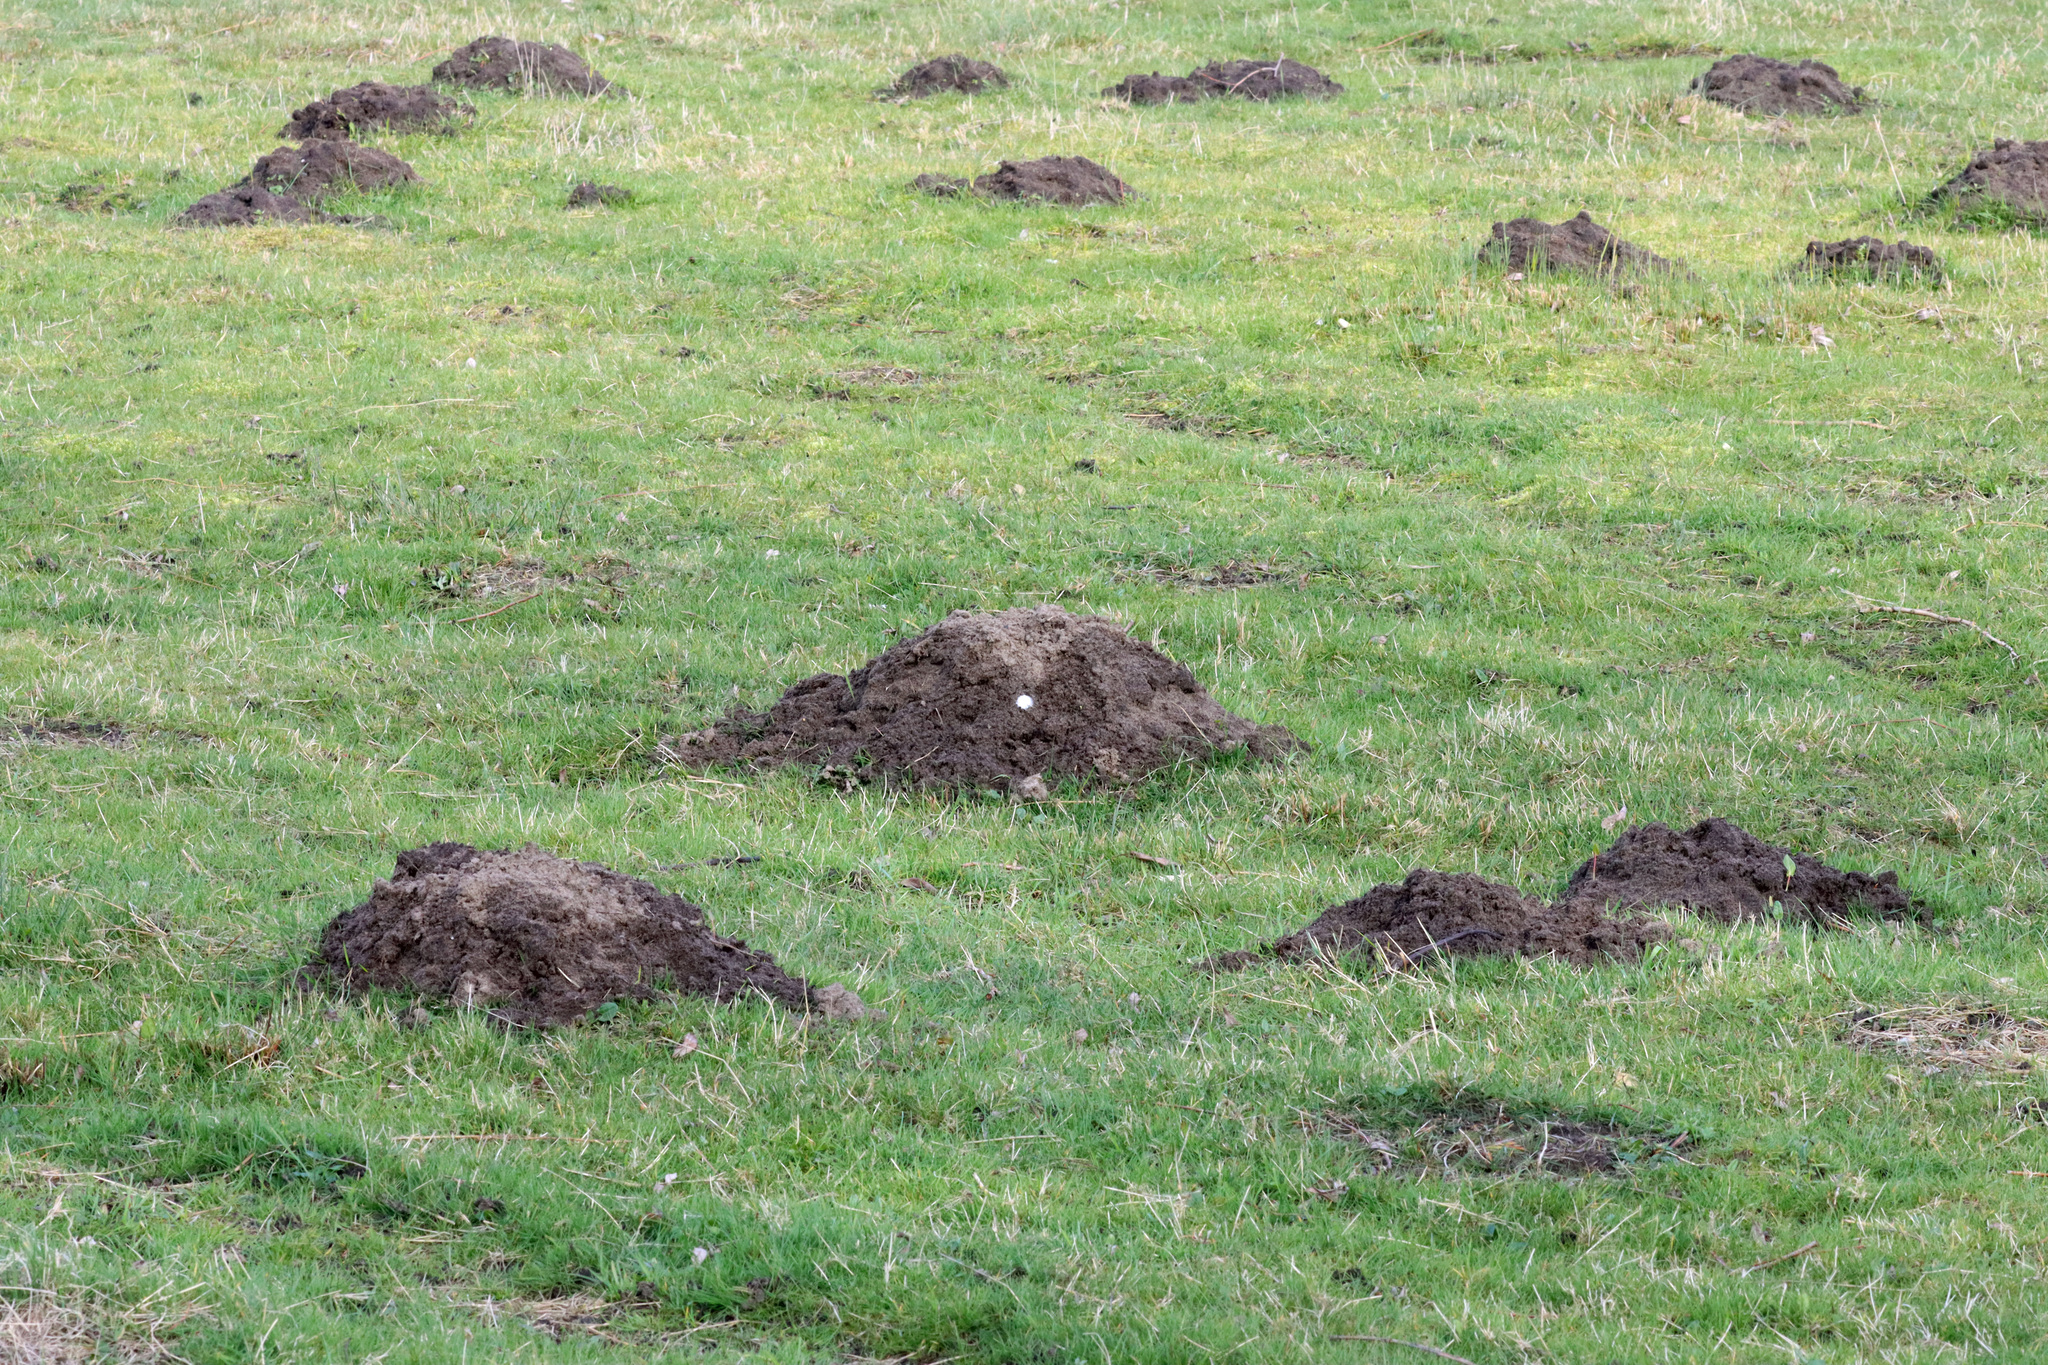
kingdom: Animalia
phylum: Chordata
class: Mammalia
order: Soricomorpha
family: Talpidae
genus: Talpa
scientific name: Talpa europaea
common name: European mole
